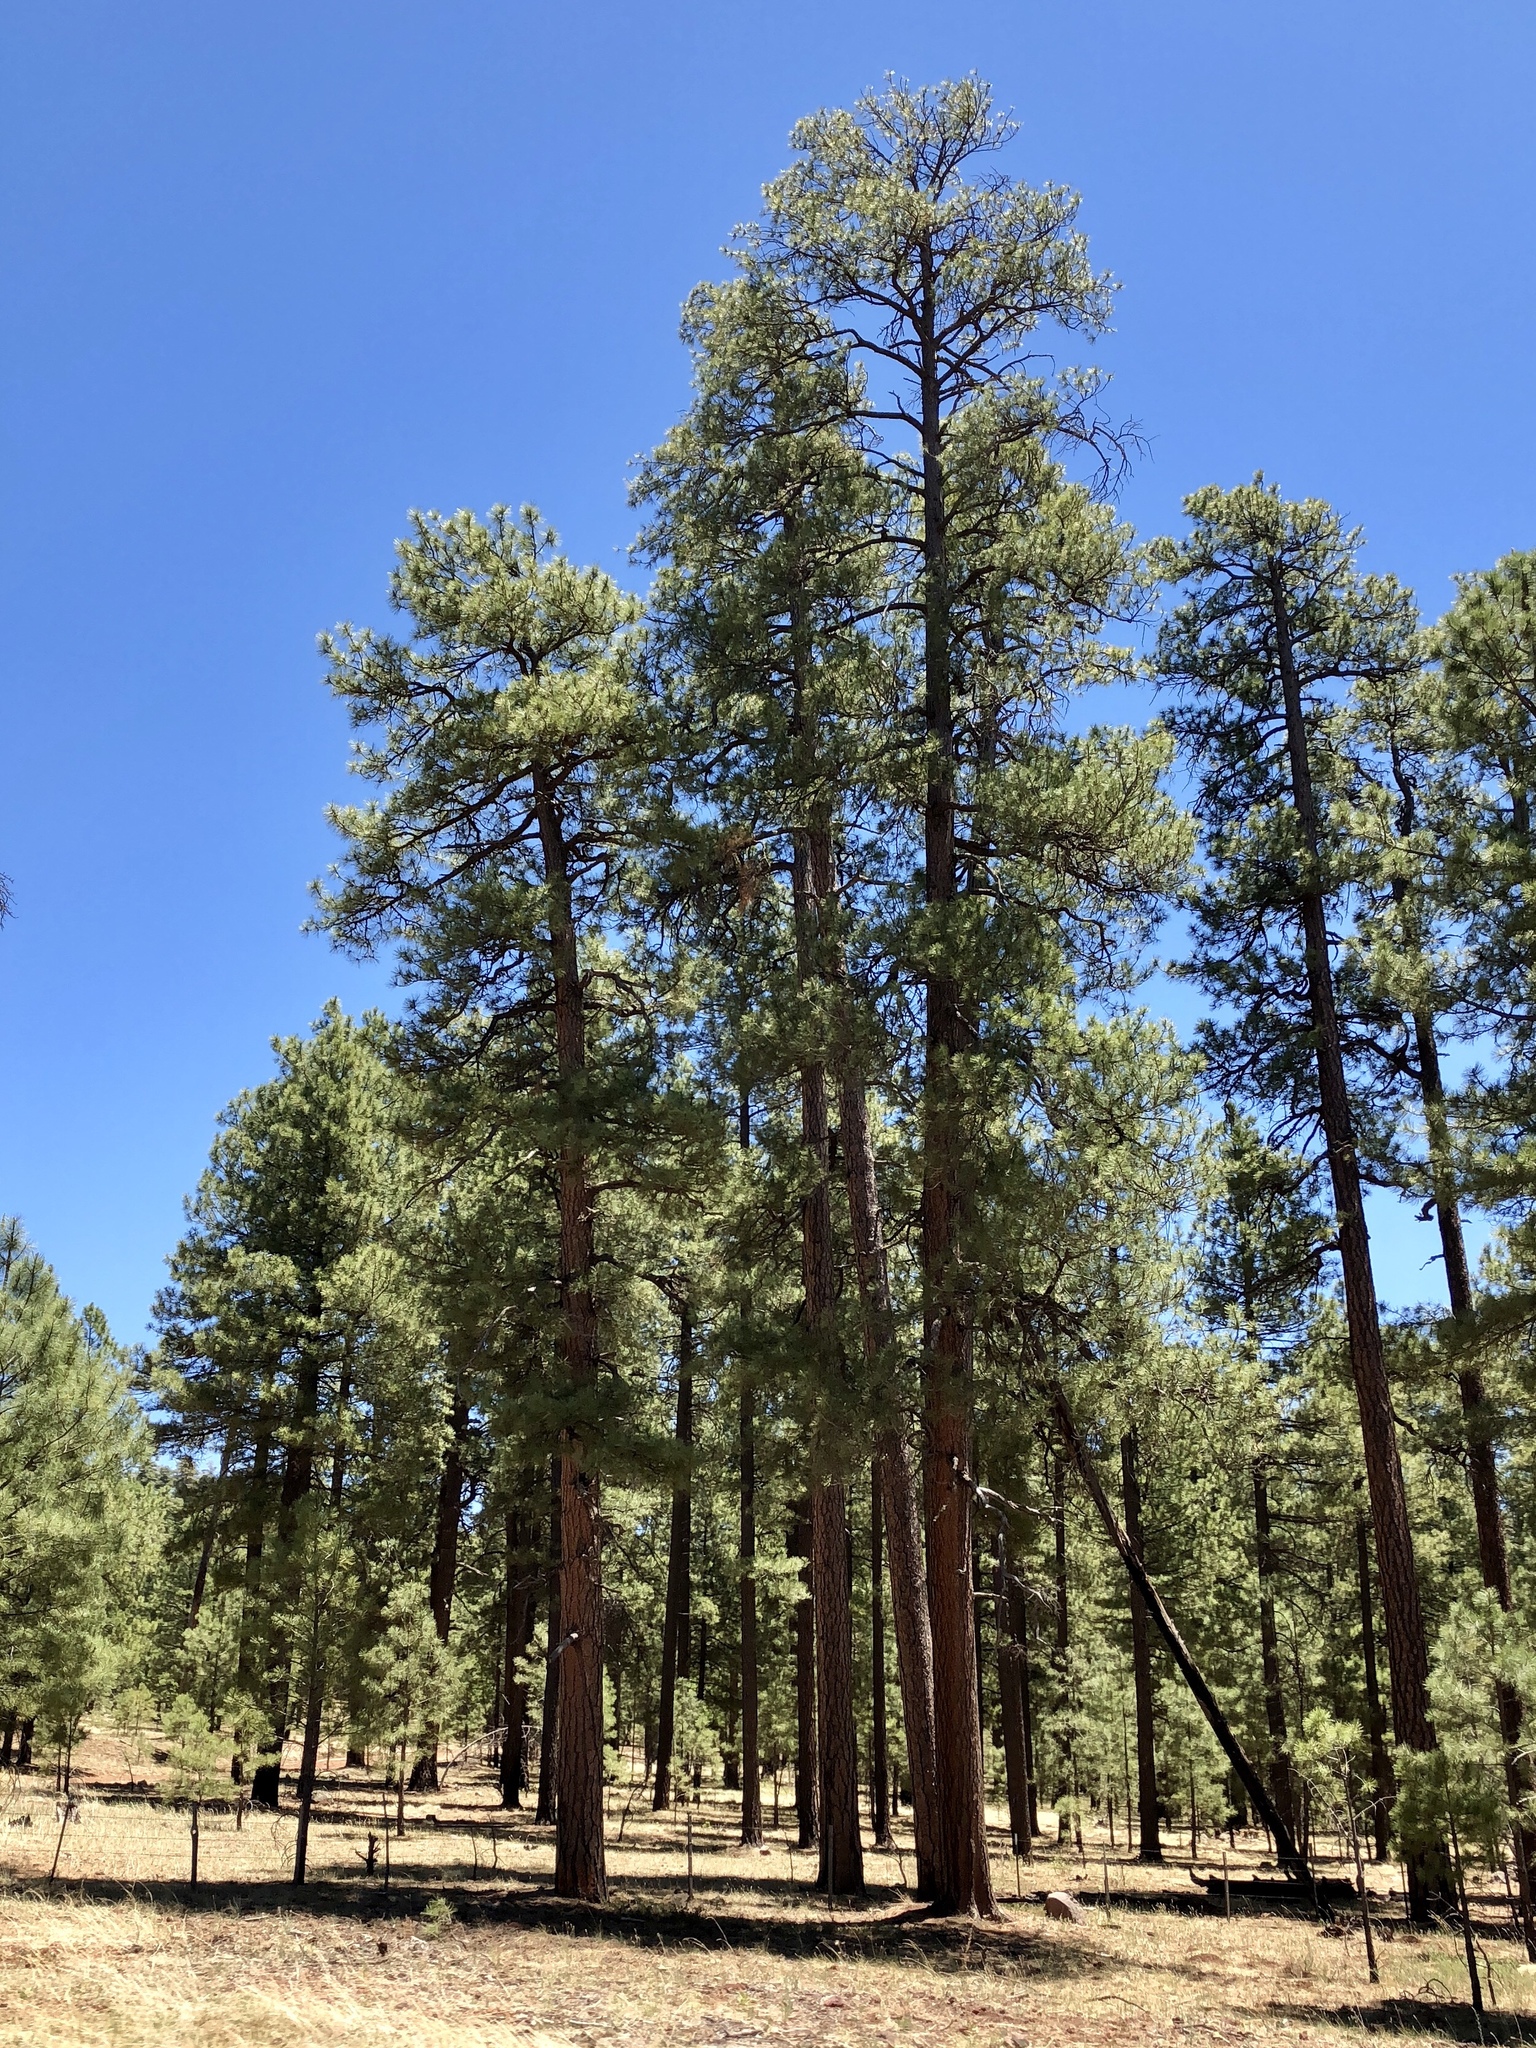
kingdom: Plantae
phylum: Tracheophyta
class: Pinopsida
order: Pinales
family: Pinaceae
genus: Pinus
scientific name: Pinus ponderosa
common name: Western yellow-pine
